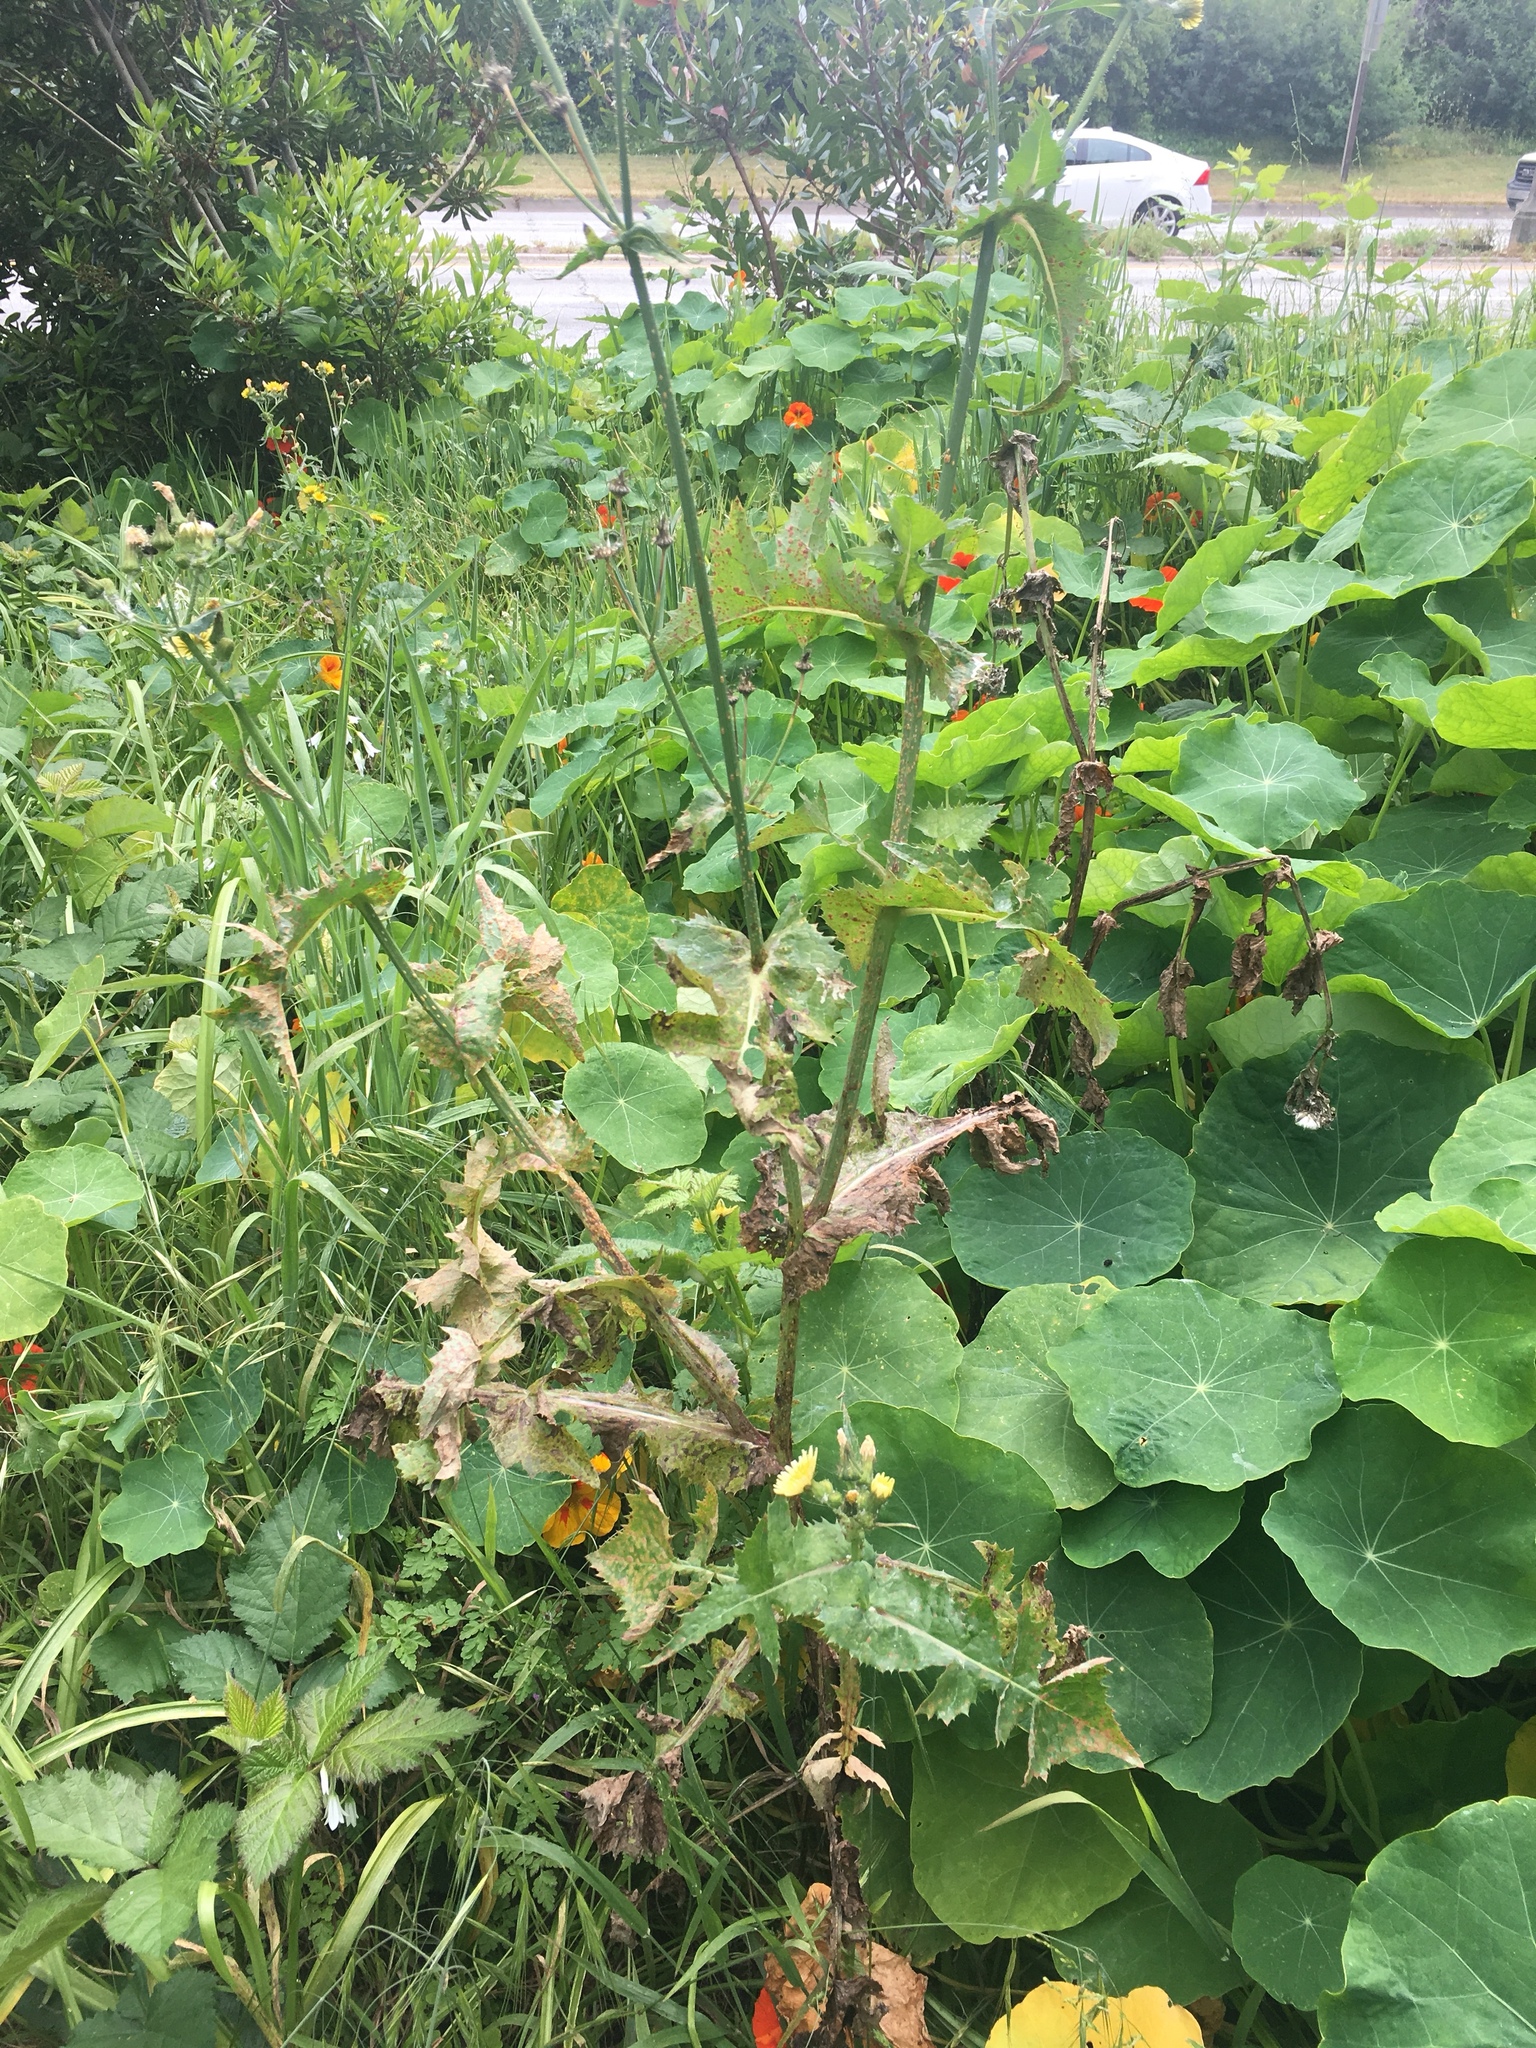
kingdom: Plantae
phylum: Tracheophyta
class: Magnoliopsida
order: Asterales
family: Asteraceae
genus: Sonchus
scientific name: Sonchus oleraceus
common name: Common sowthistle
